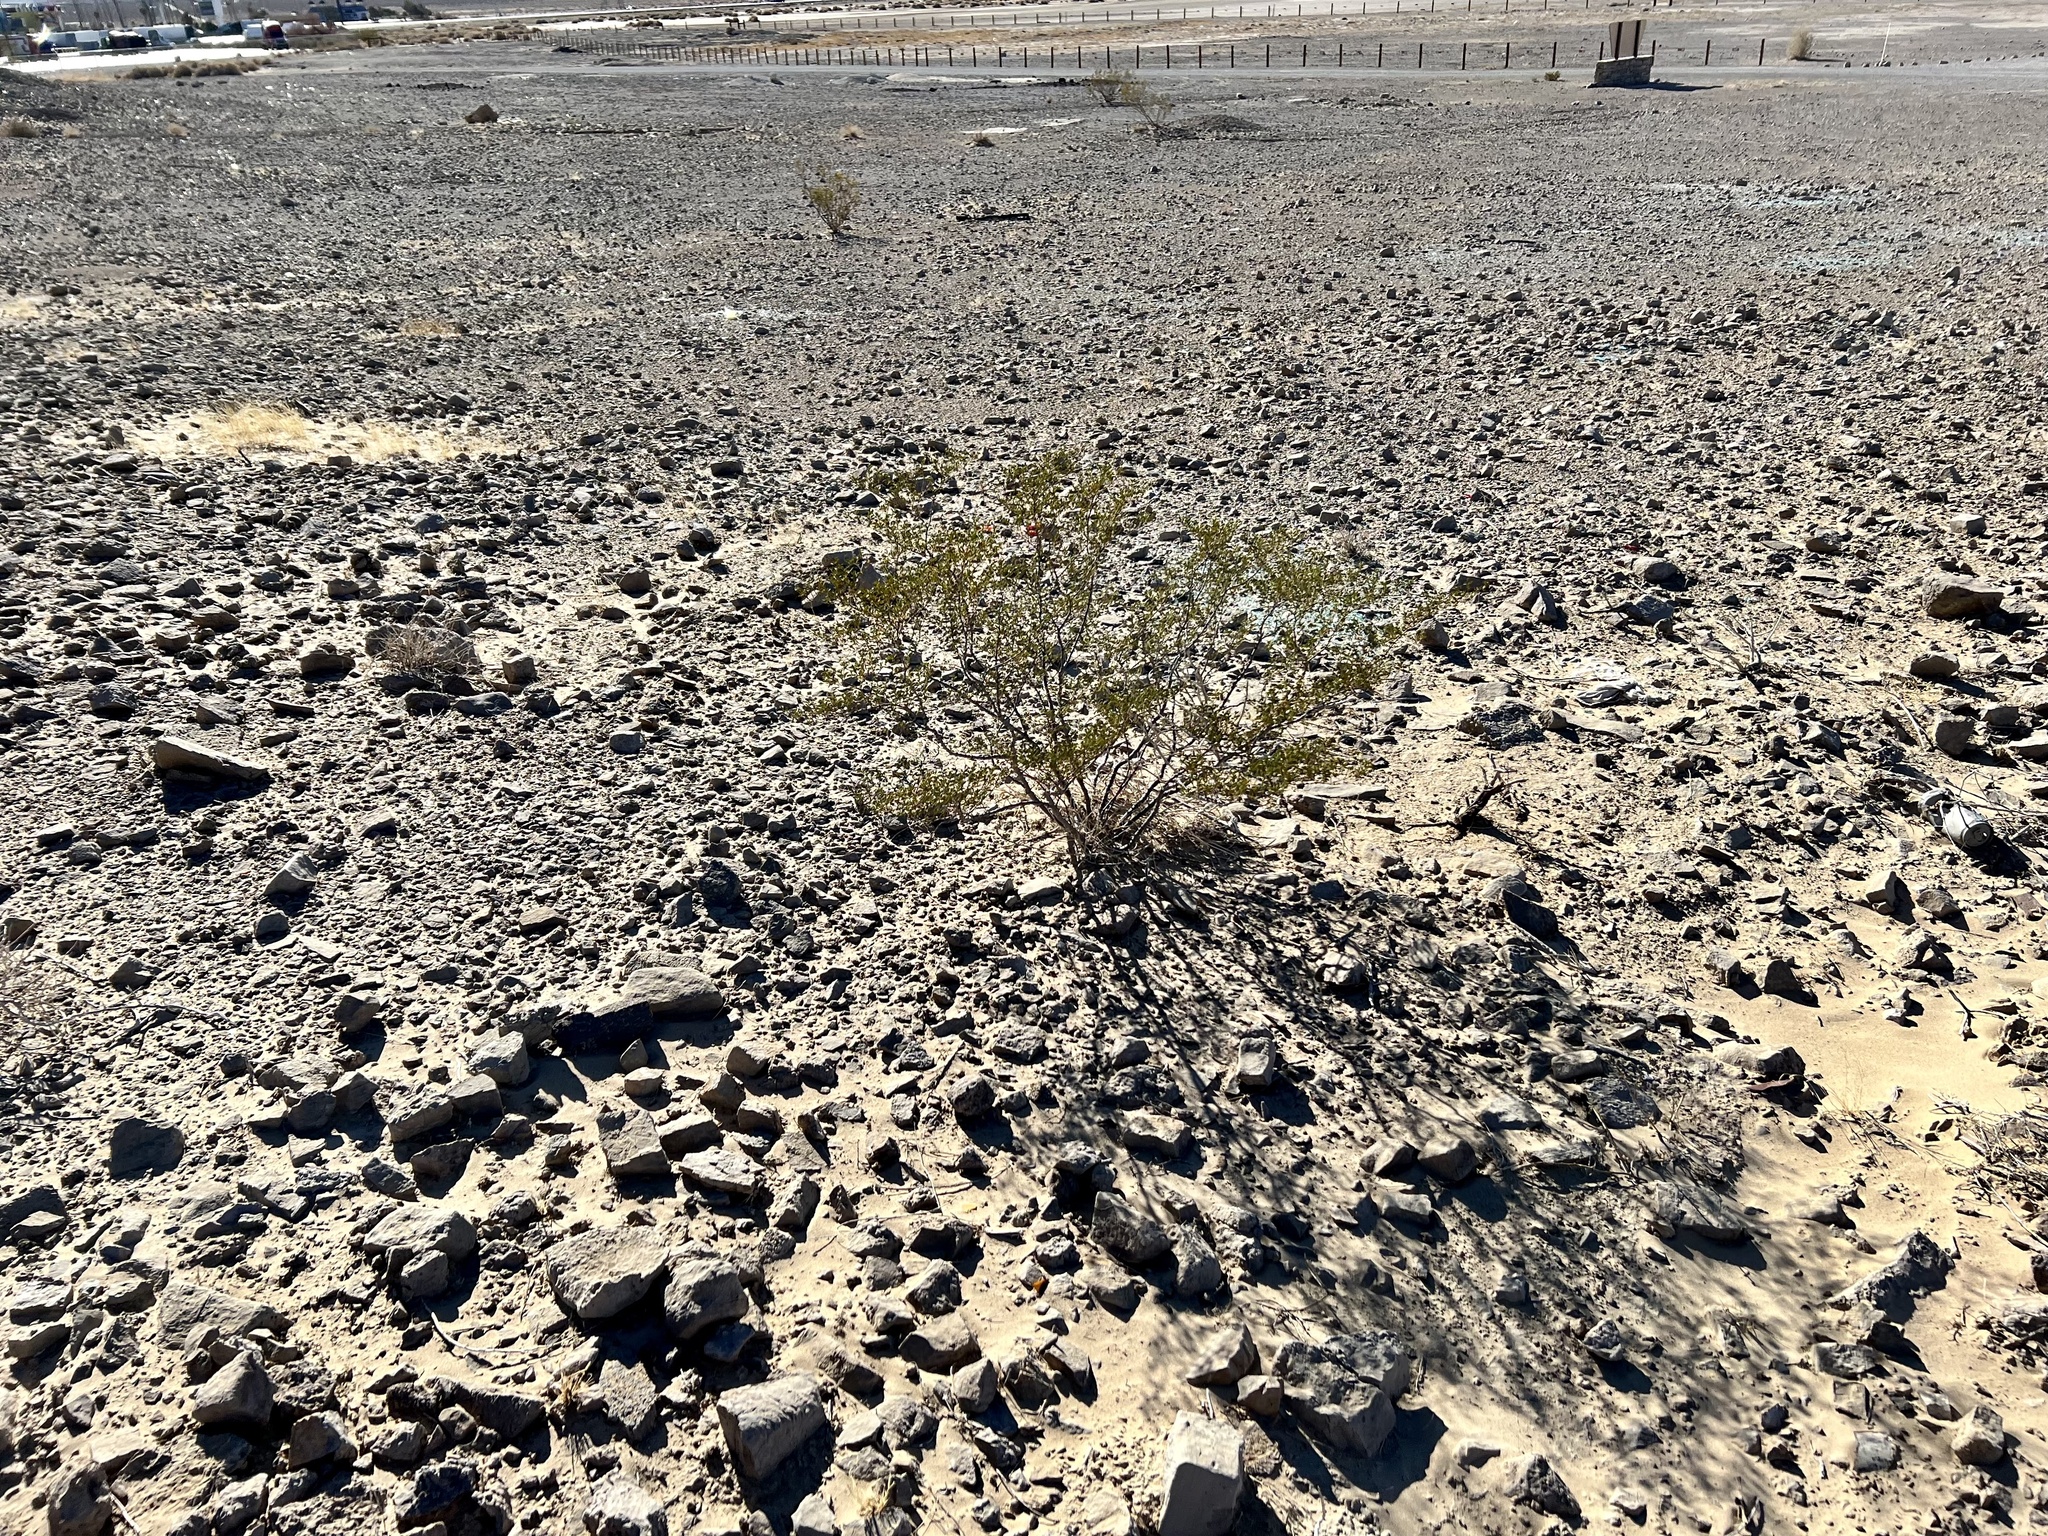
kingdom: Plantae
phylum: Tracheophyta
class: Magnoliopsida
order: Zygophyllales
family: Zygophyllaceae
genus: Larrea
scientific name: Larrea tridentata
